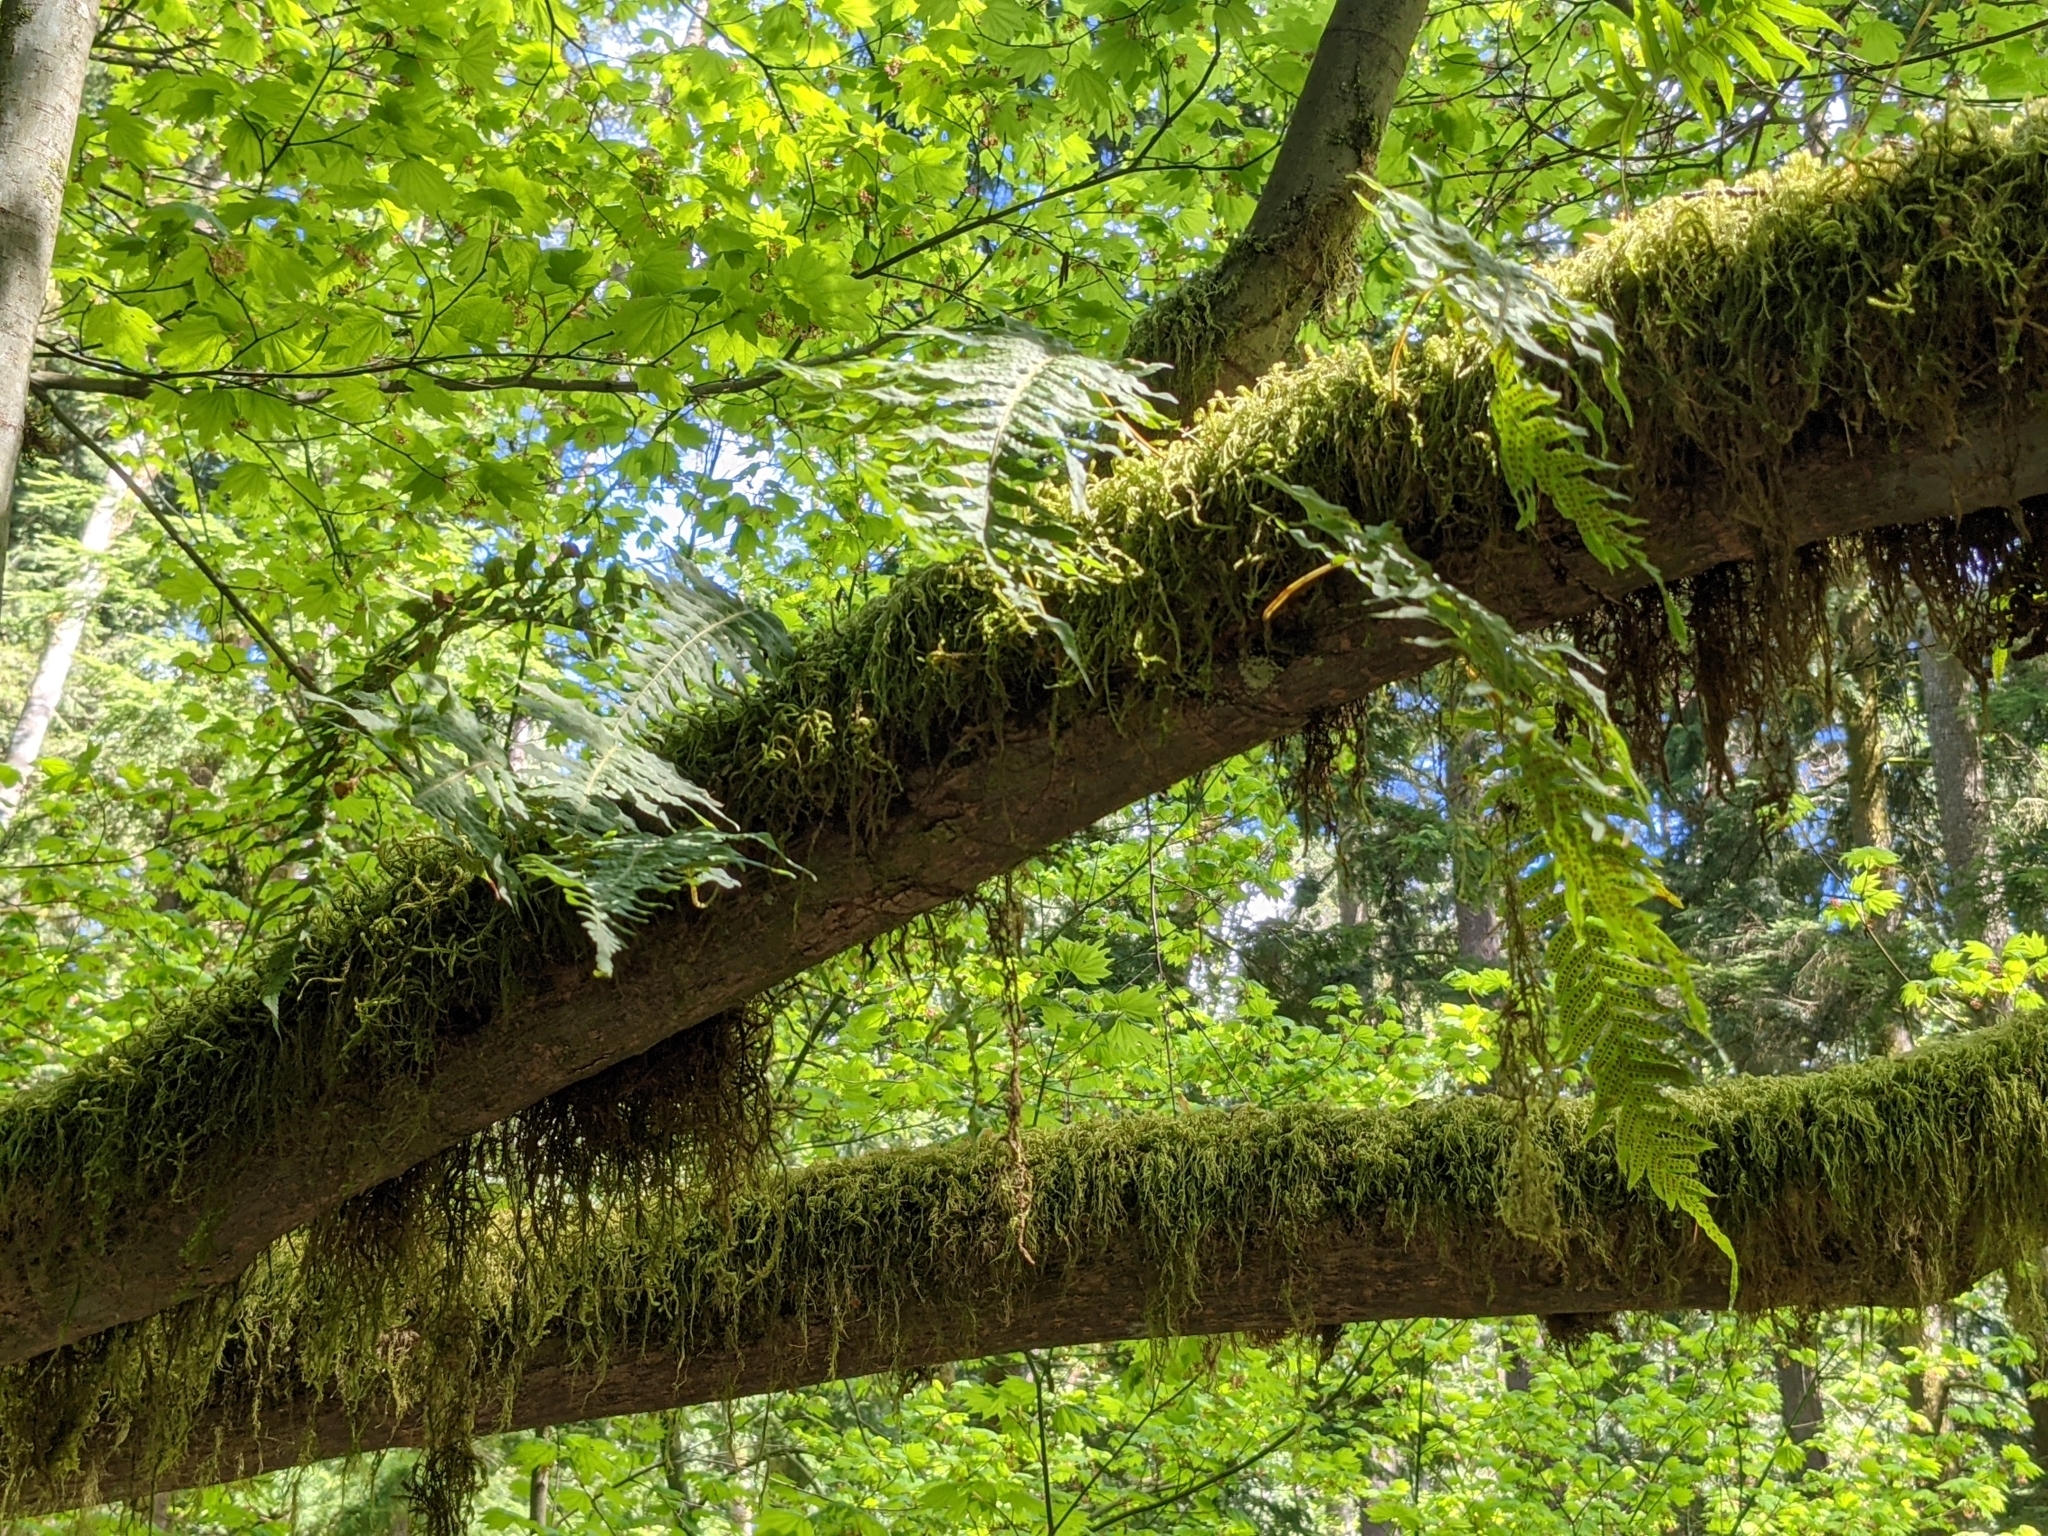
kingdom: Plantae
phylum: Tracheophyta
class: Polypodiopsida
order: Polypodiales
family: Polypodiaceae
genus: Polypodium
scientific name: Polypodium glycyrrhiza
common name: Licorice fern
